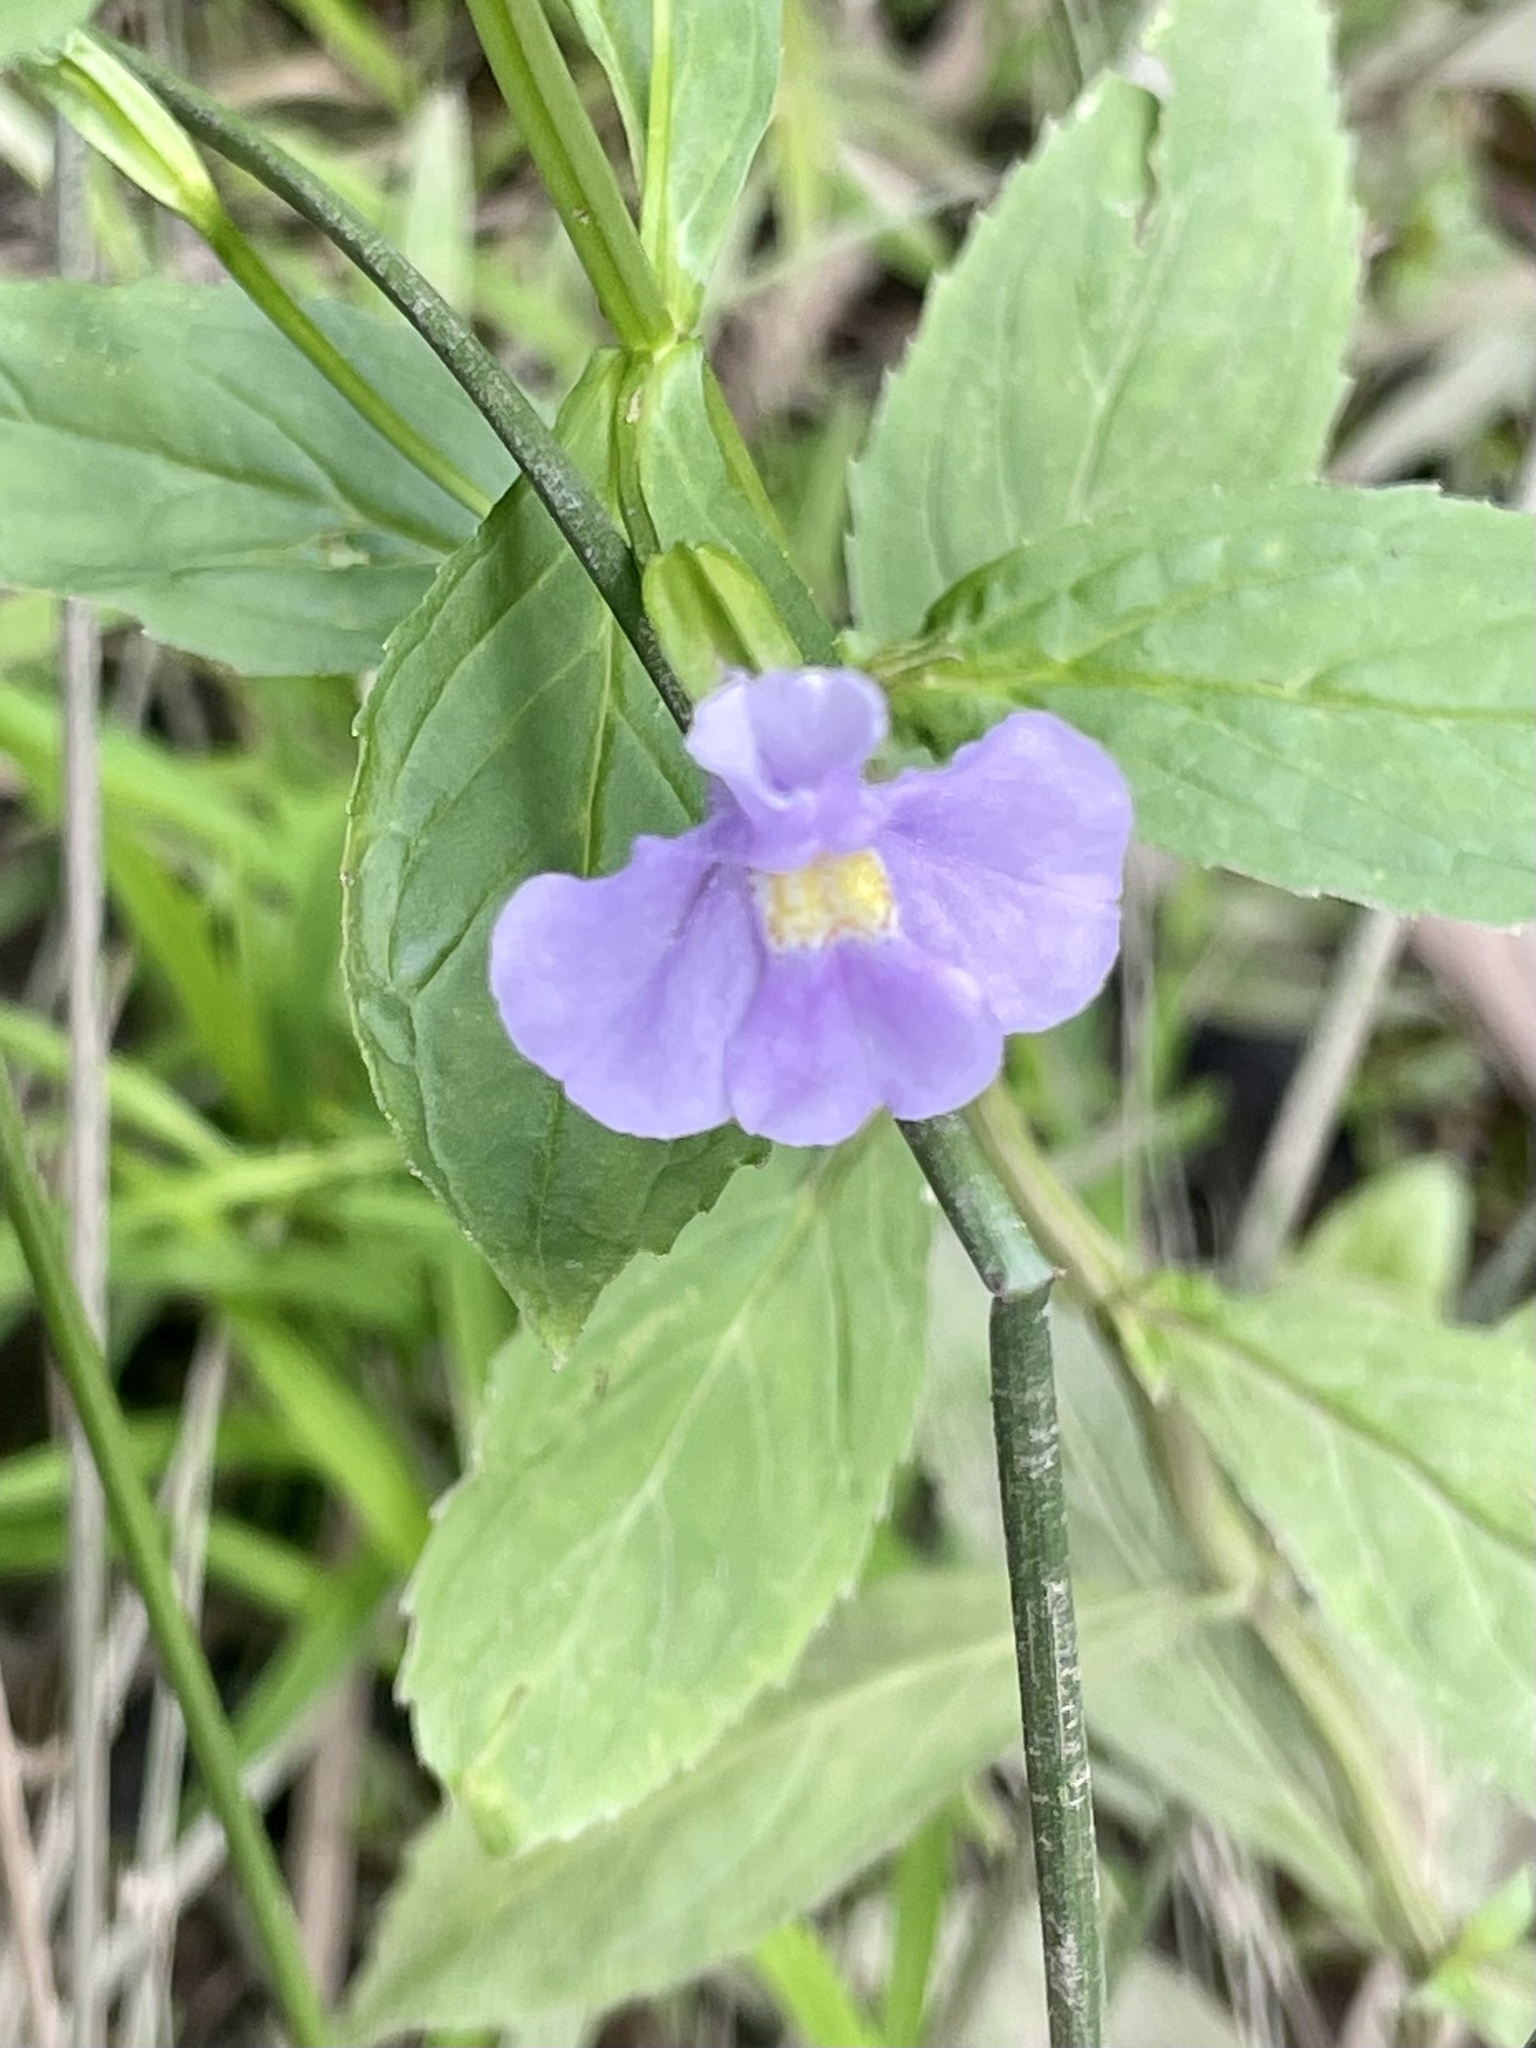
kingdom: Plantae
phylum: Tracheophyta
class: Magnoliopsida
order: Lamiales
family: Phrymaceae
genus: Mimulus
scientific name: Mimulus ringens
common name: Allegheny monkeyflower
